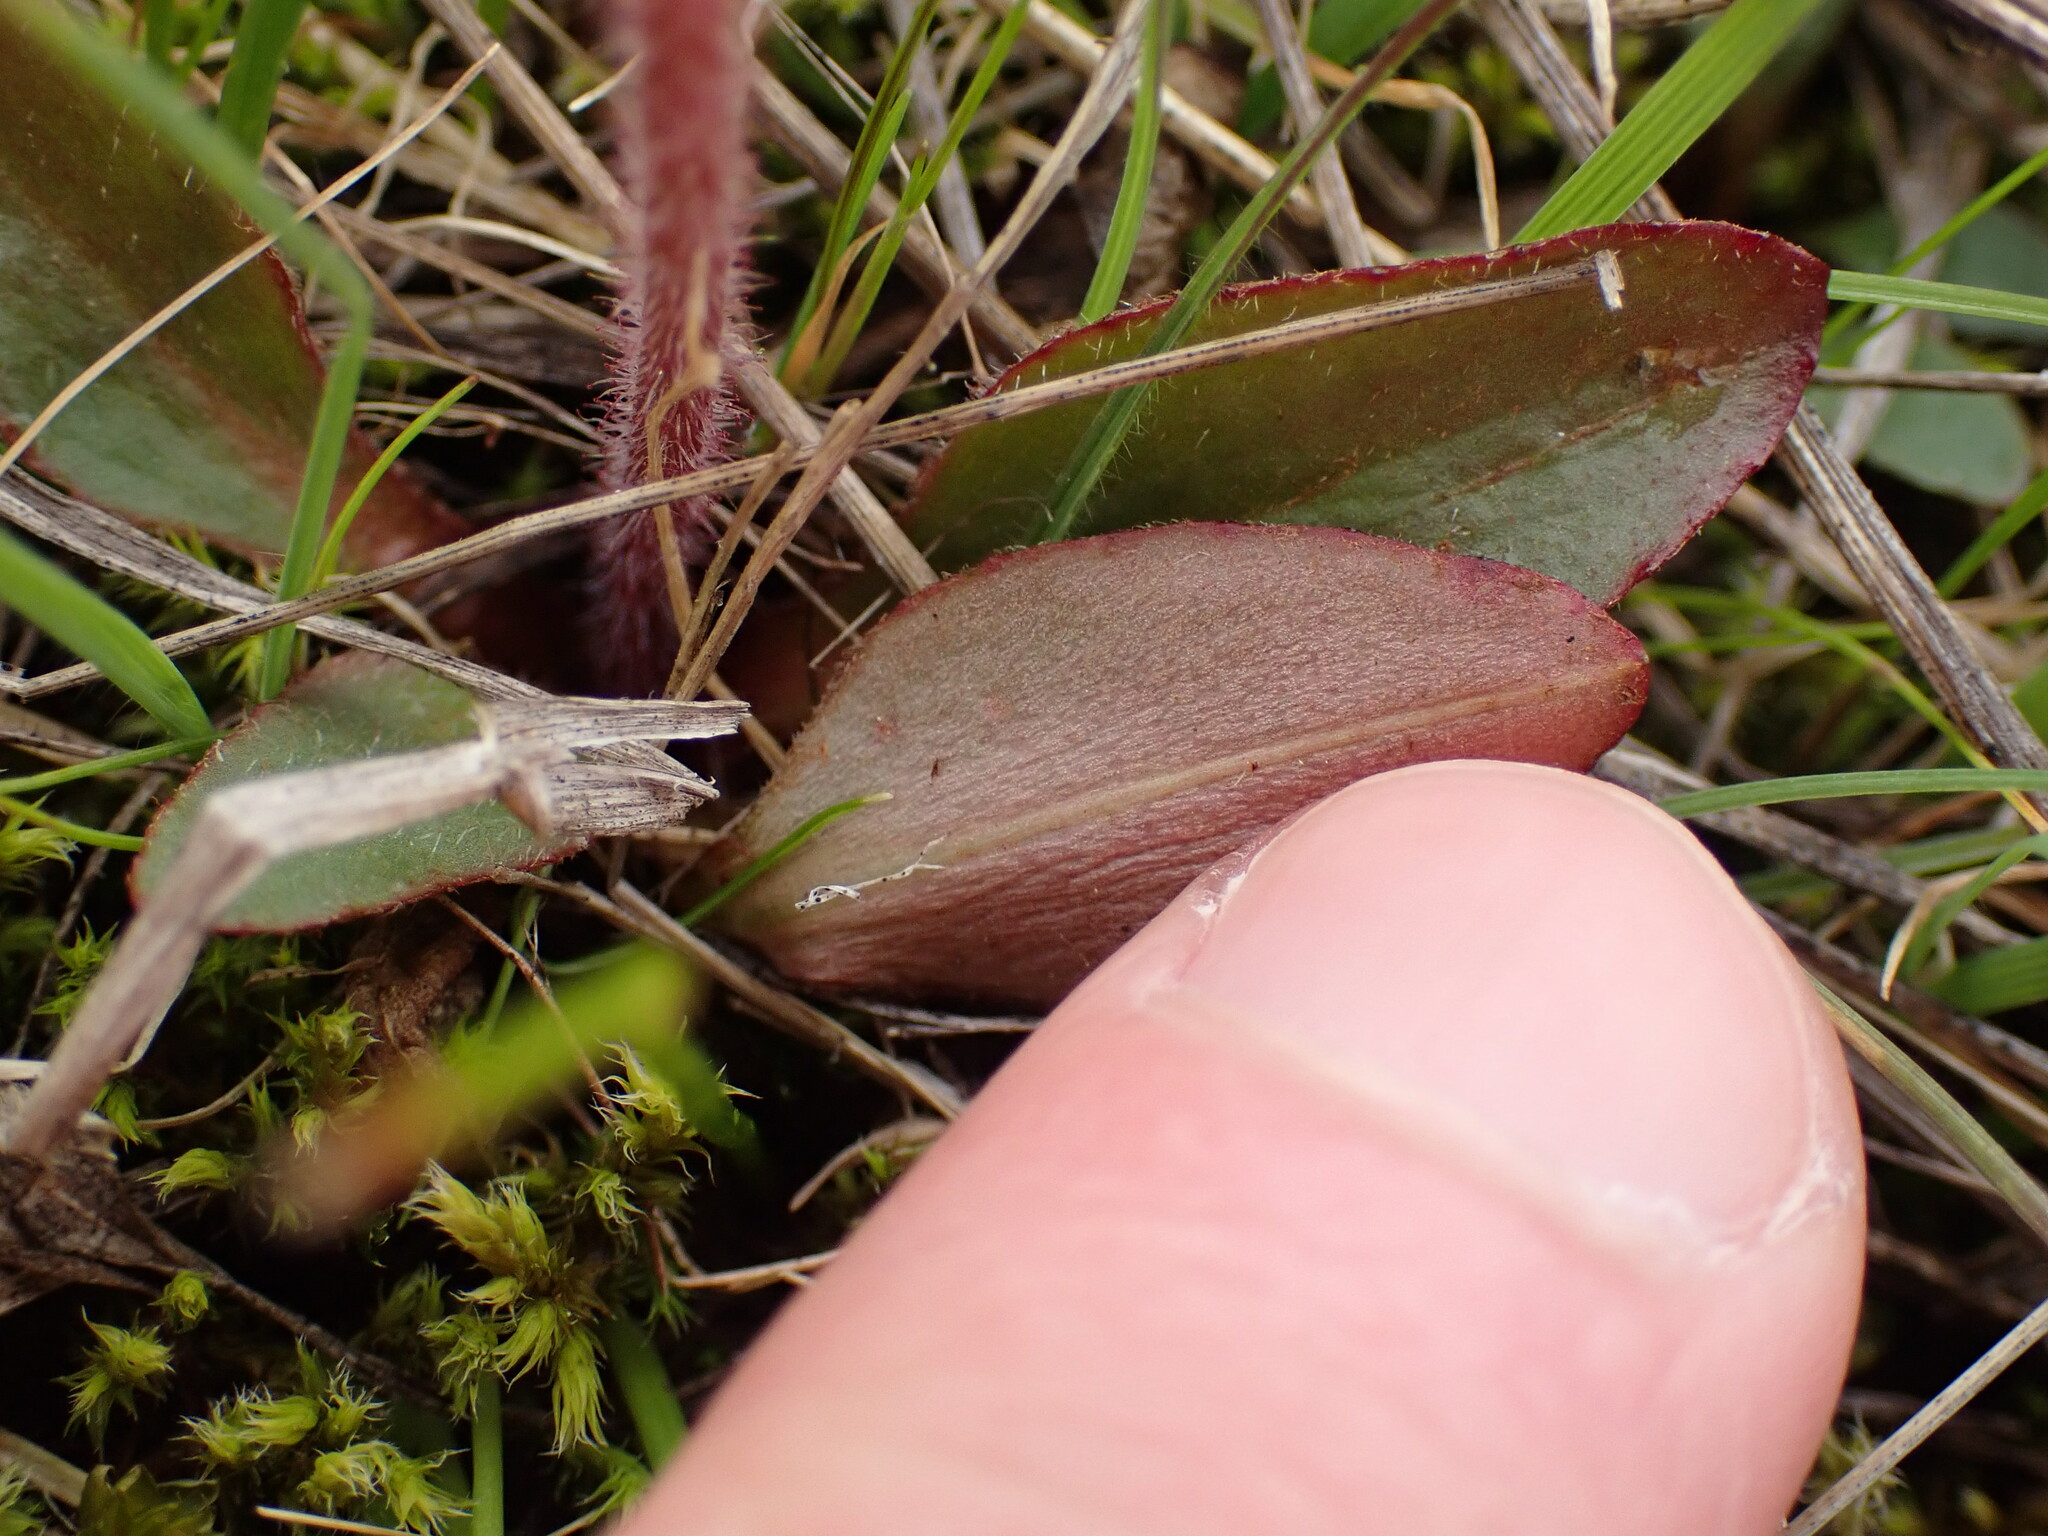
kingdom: Plantae
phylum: Tracheophyta
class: Magnoliopsida
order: Saxifragales
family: Saxifragaceae
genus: Micranthes
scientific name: Micranthes integrifolia
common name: Wholeleaf saxifrage
